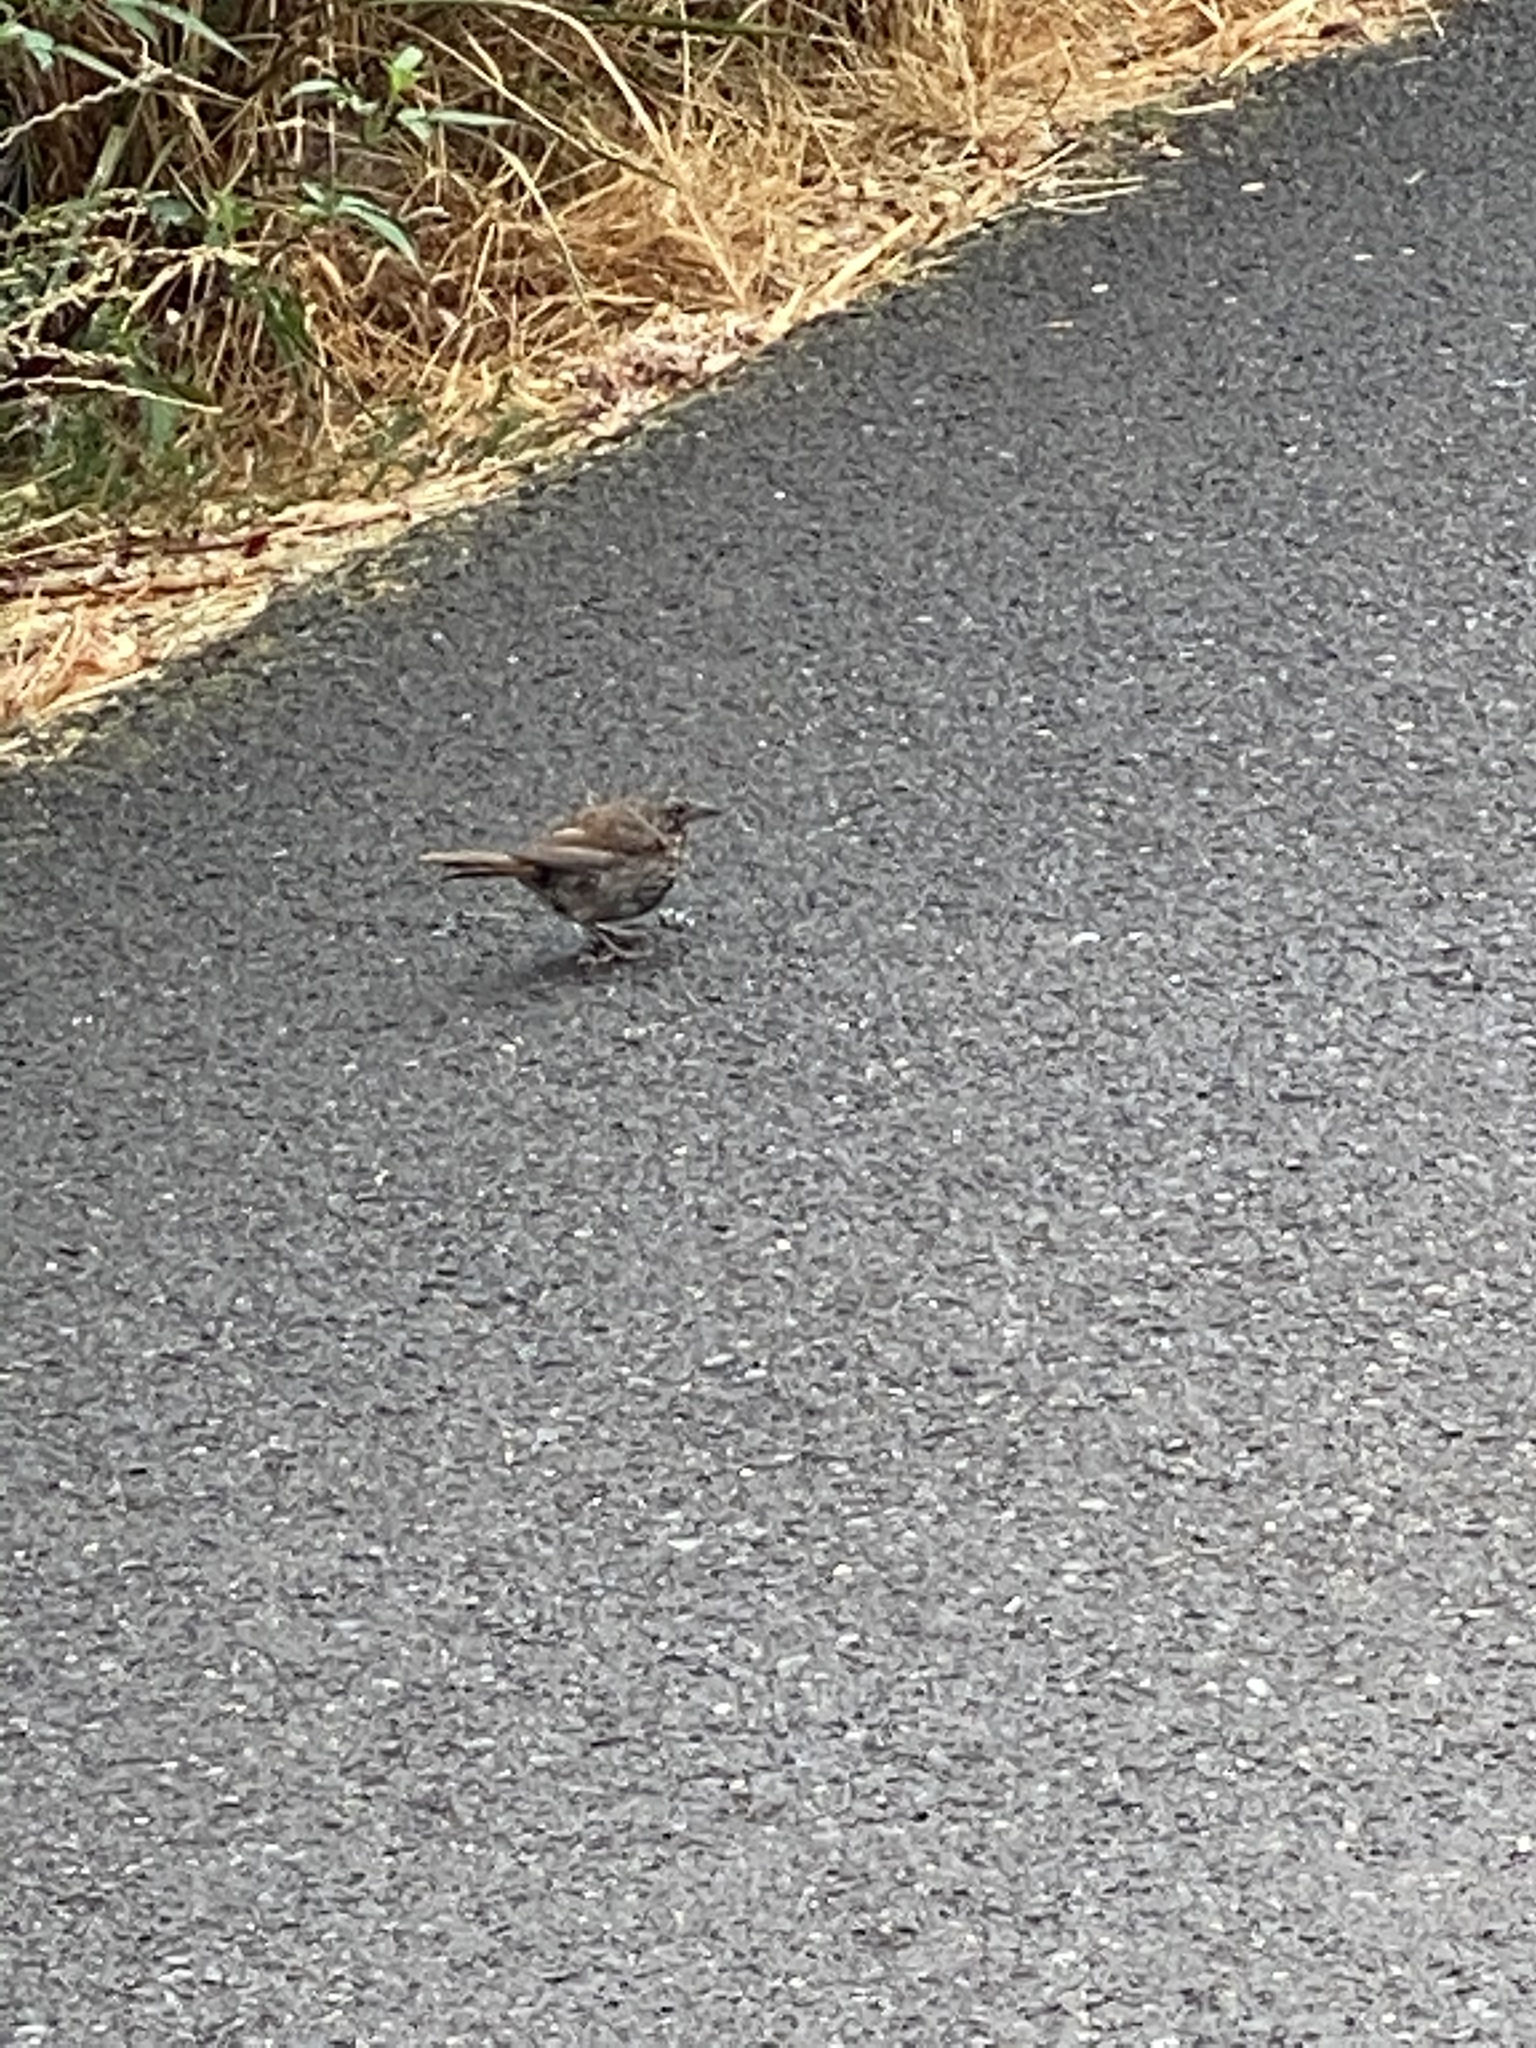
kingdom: Animalia
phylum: Chordata
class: Aves
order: Passeriformes
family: Passerellidae
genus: Melospiza
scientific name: Melospiza melodia
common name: Song sparrow
